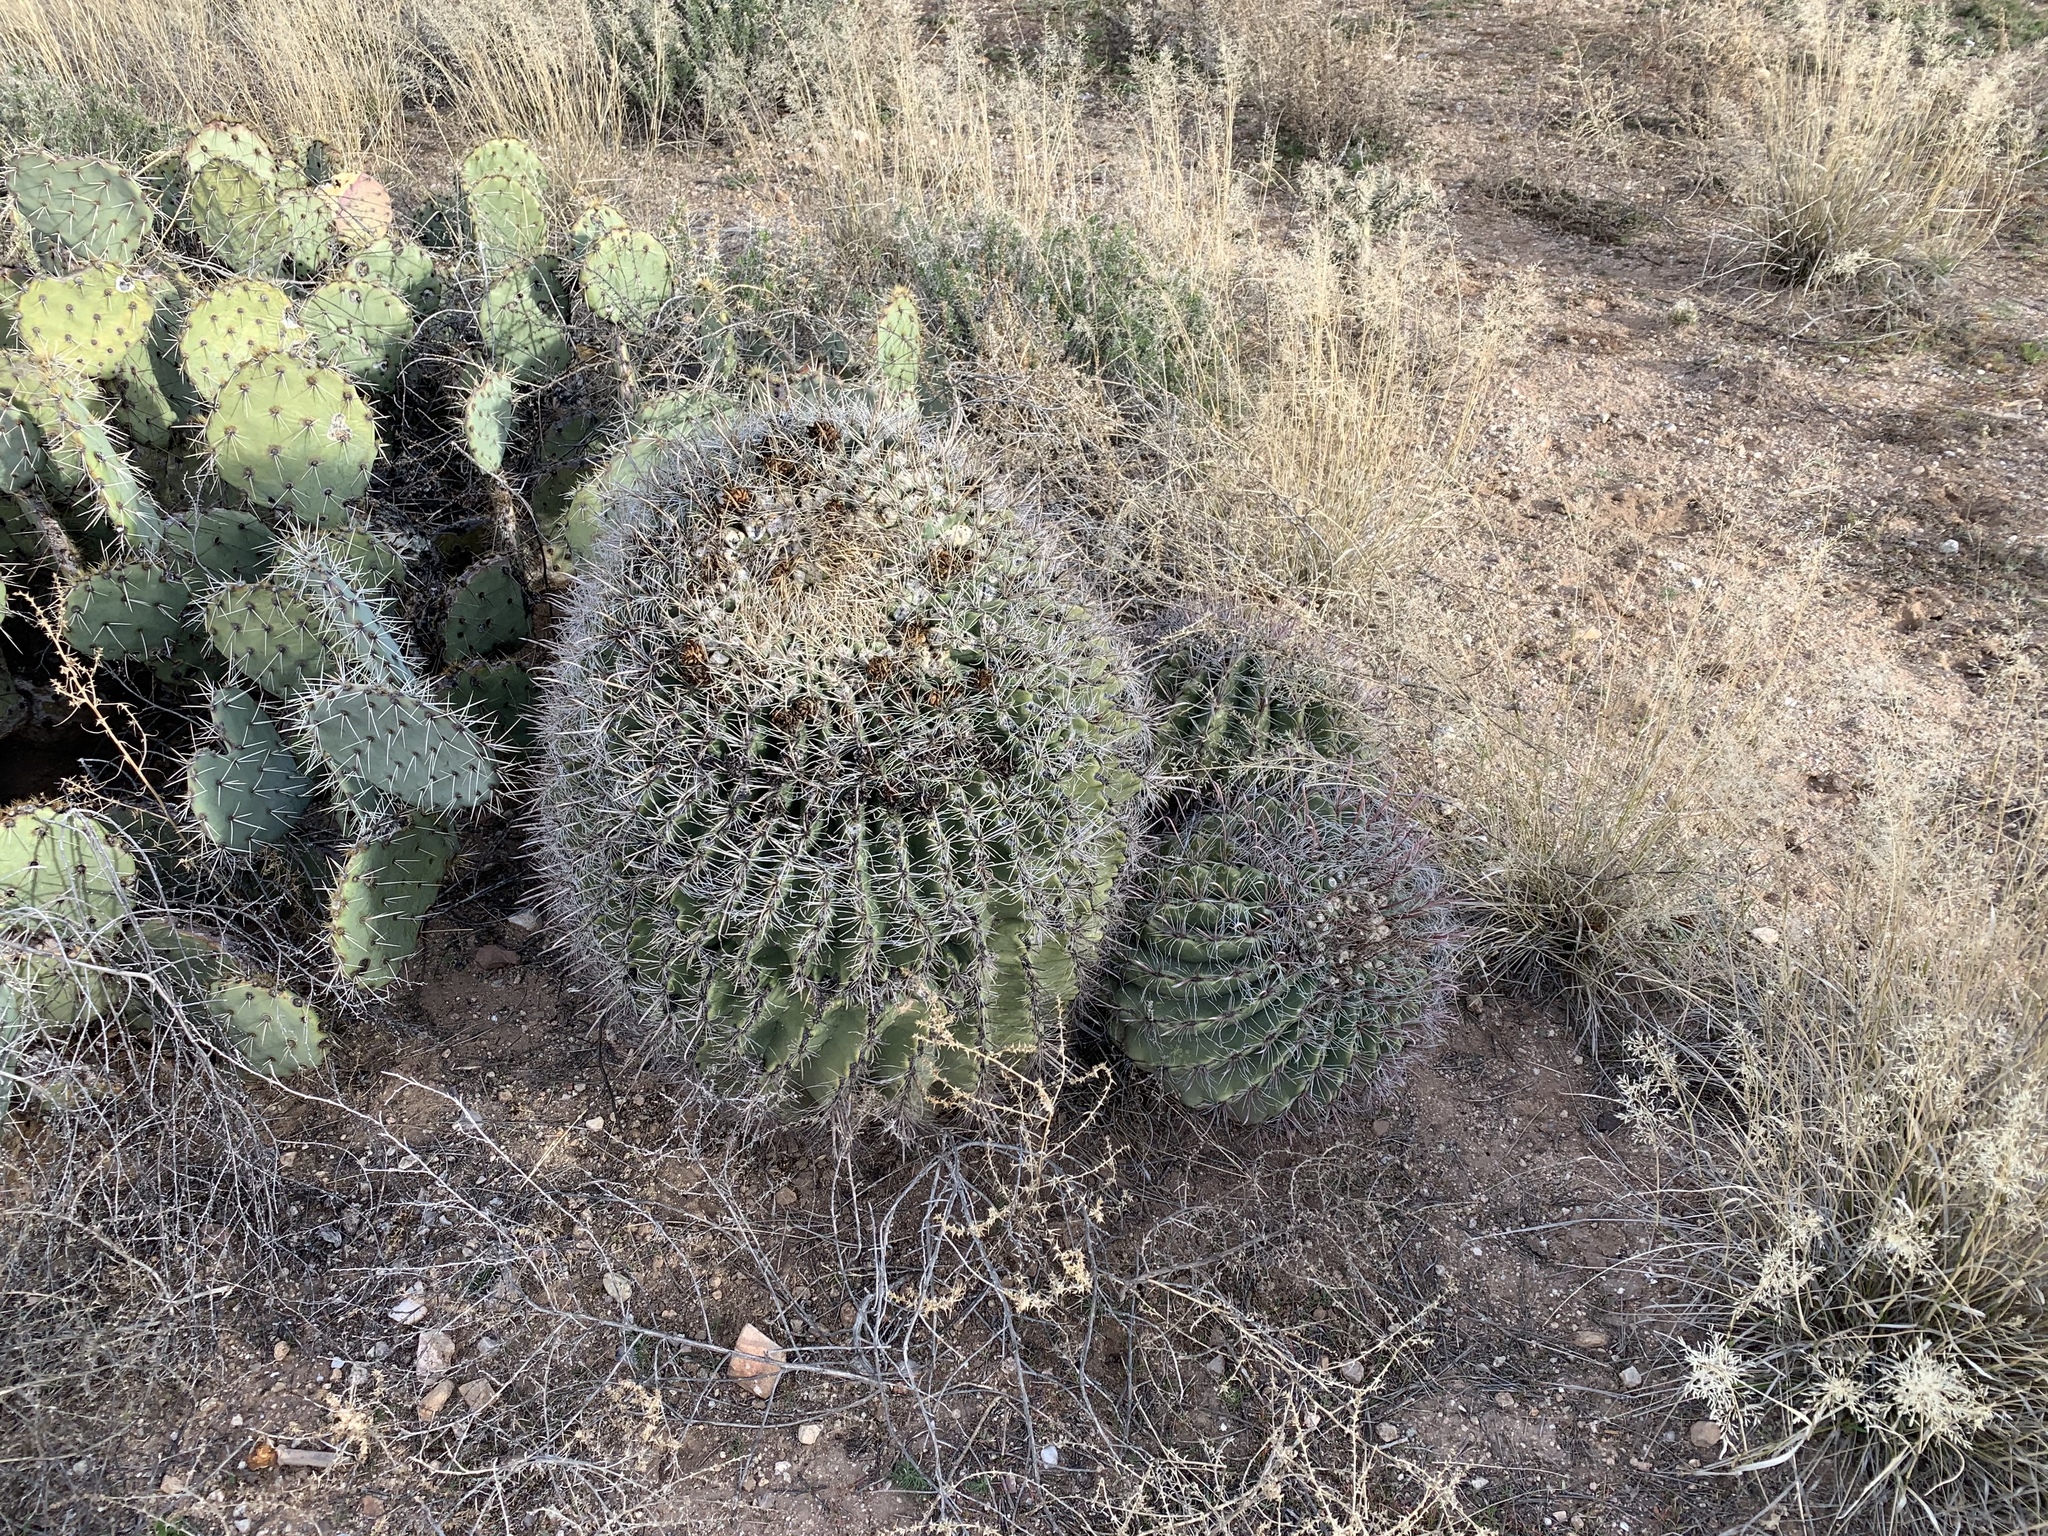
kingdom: Plantae
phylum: Tracheophyta
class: Magnoliopsida
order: Caryophyllales
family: Cactaceae
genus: Ferocactus
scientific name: Ferocactus wislizeni
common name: Candy barrel cactus
